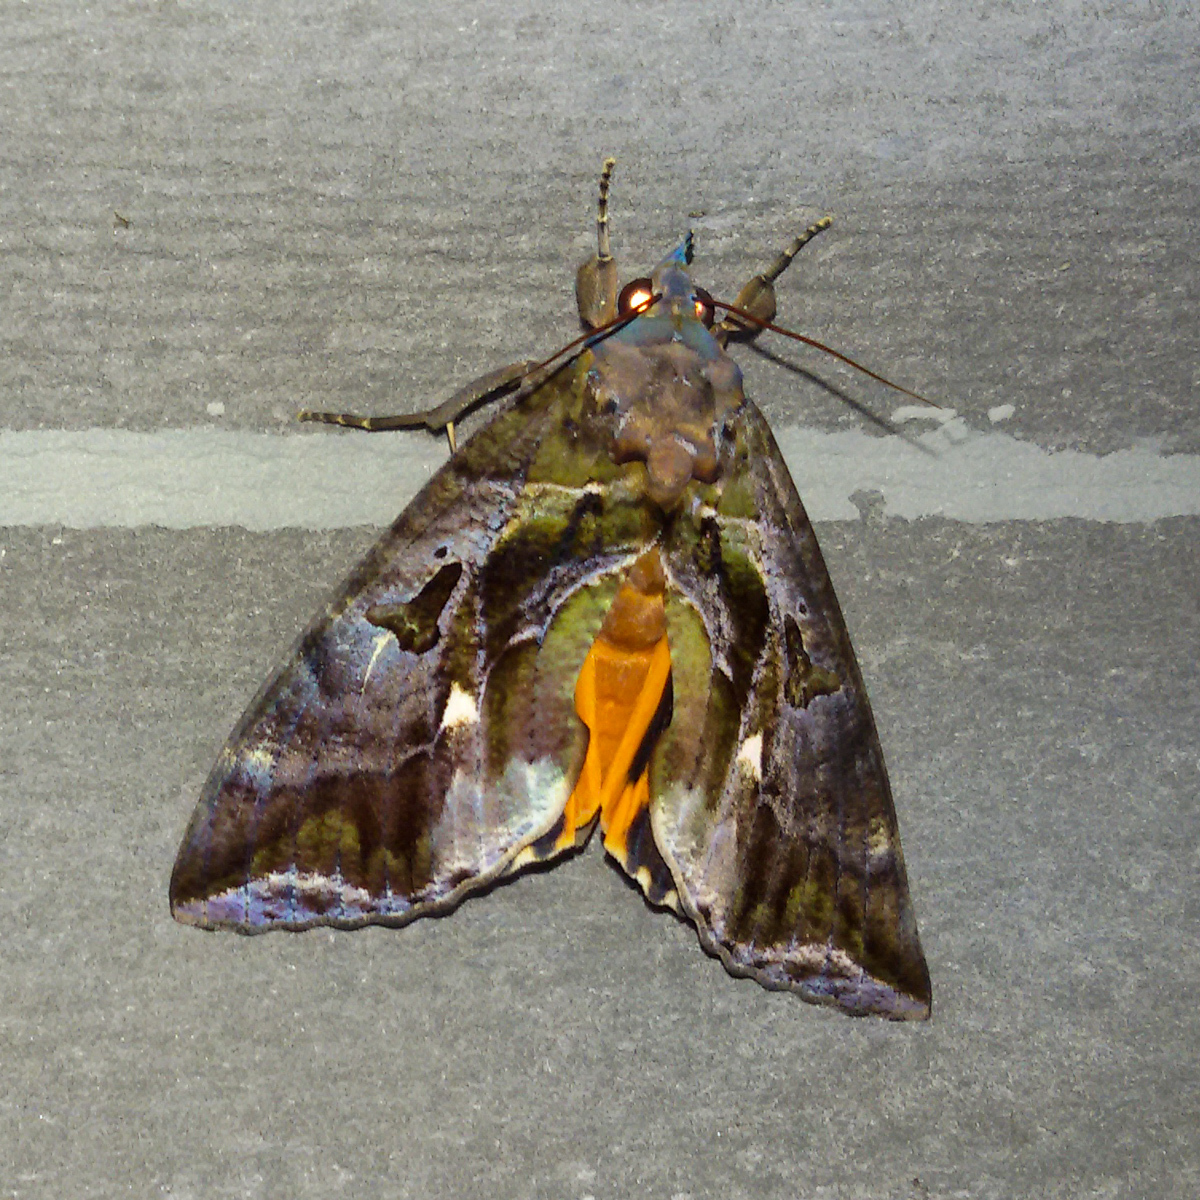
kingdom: Animalia
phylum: Arthropoda
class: Insecta
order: Lepidoptera
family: Erebidae
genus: Eudocima
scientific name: Eudocima phalonia
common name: Wasp
